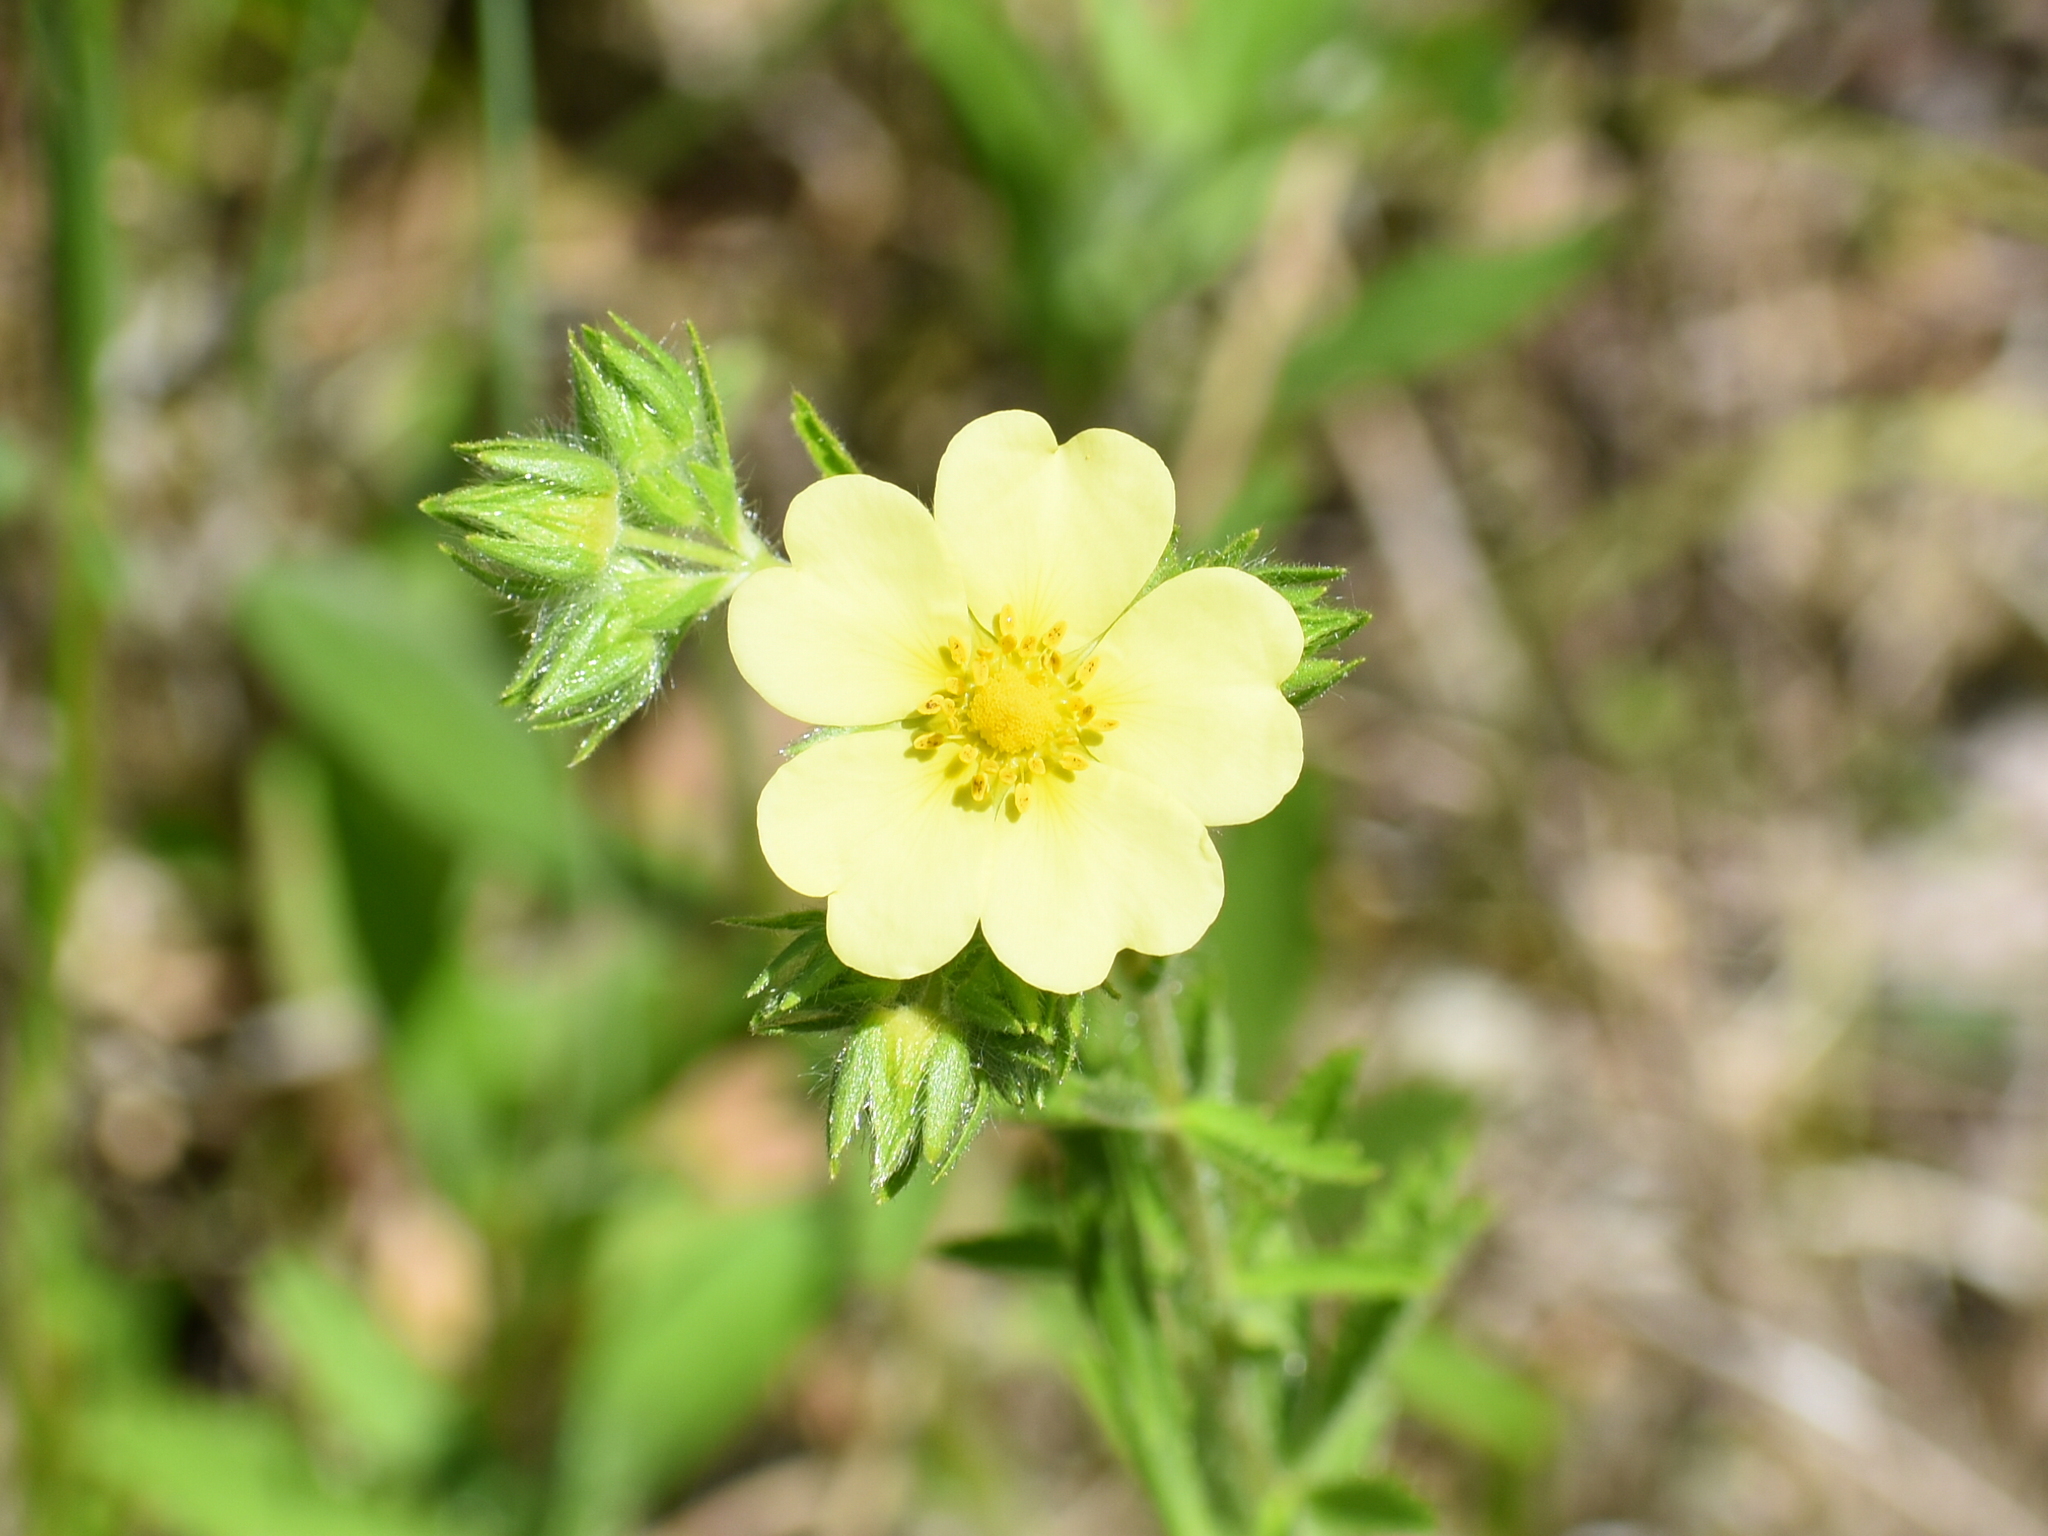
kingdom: Plantae
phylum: Tracheophyta
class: Magnoliopsida
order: Rosales
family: Rosaceae
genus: Potentilla
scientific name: Potentilla recta
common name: Sulphur cinquefoil
